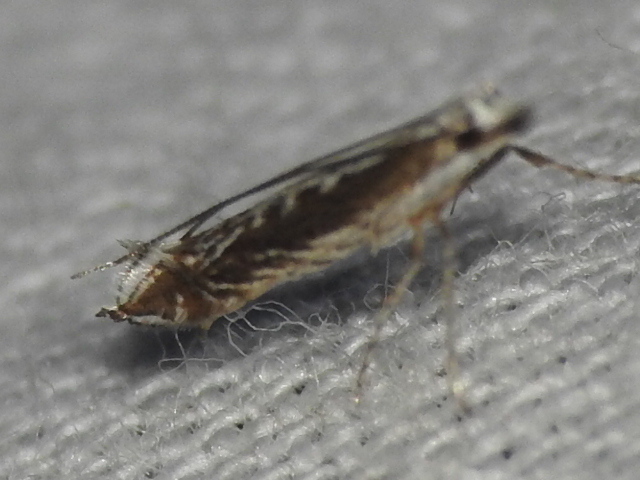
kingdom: Plantae
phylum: Rhodophyta
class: Florideophyceae
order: Gracilariales
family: Gracilariaceae
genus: Gracilaria
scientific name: Gracilaria
